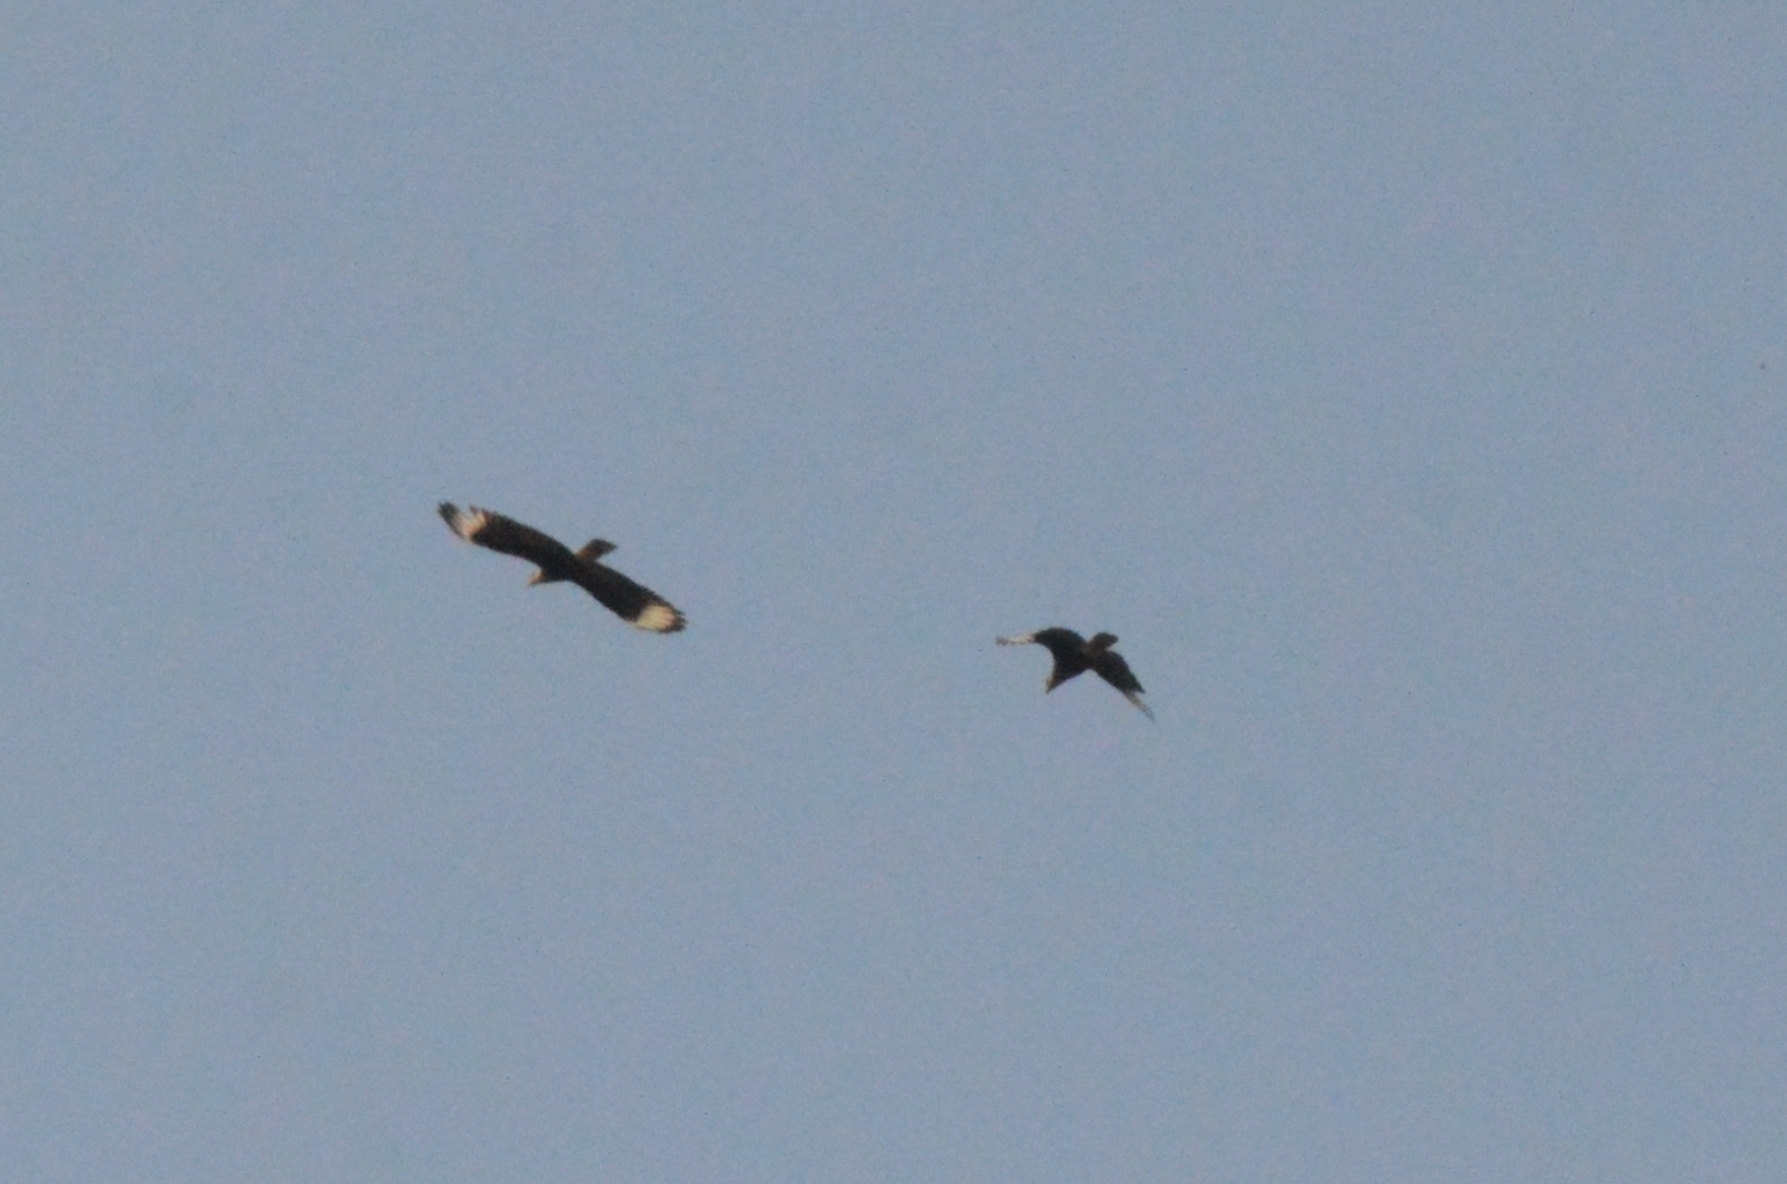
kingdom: Animalia
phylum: Chordata
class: Aves
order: Falconiformes
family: Falconidae
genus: Caracara
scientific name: Caracara plancus
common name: Southern caracara
